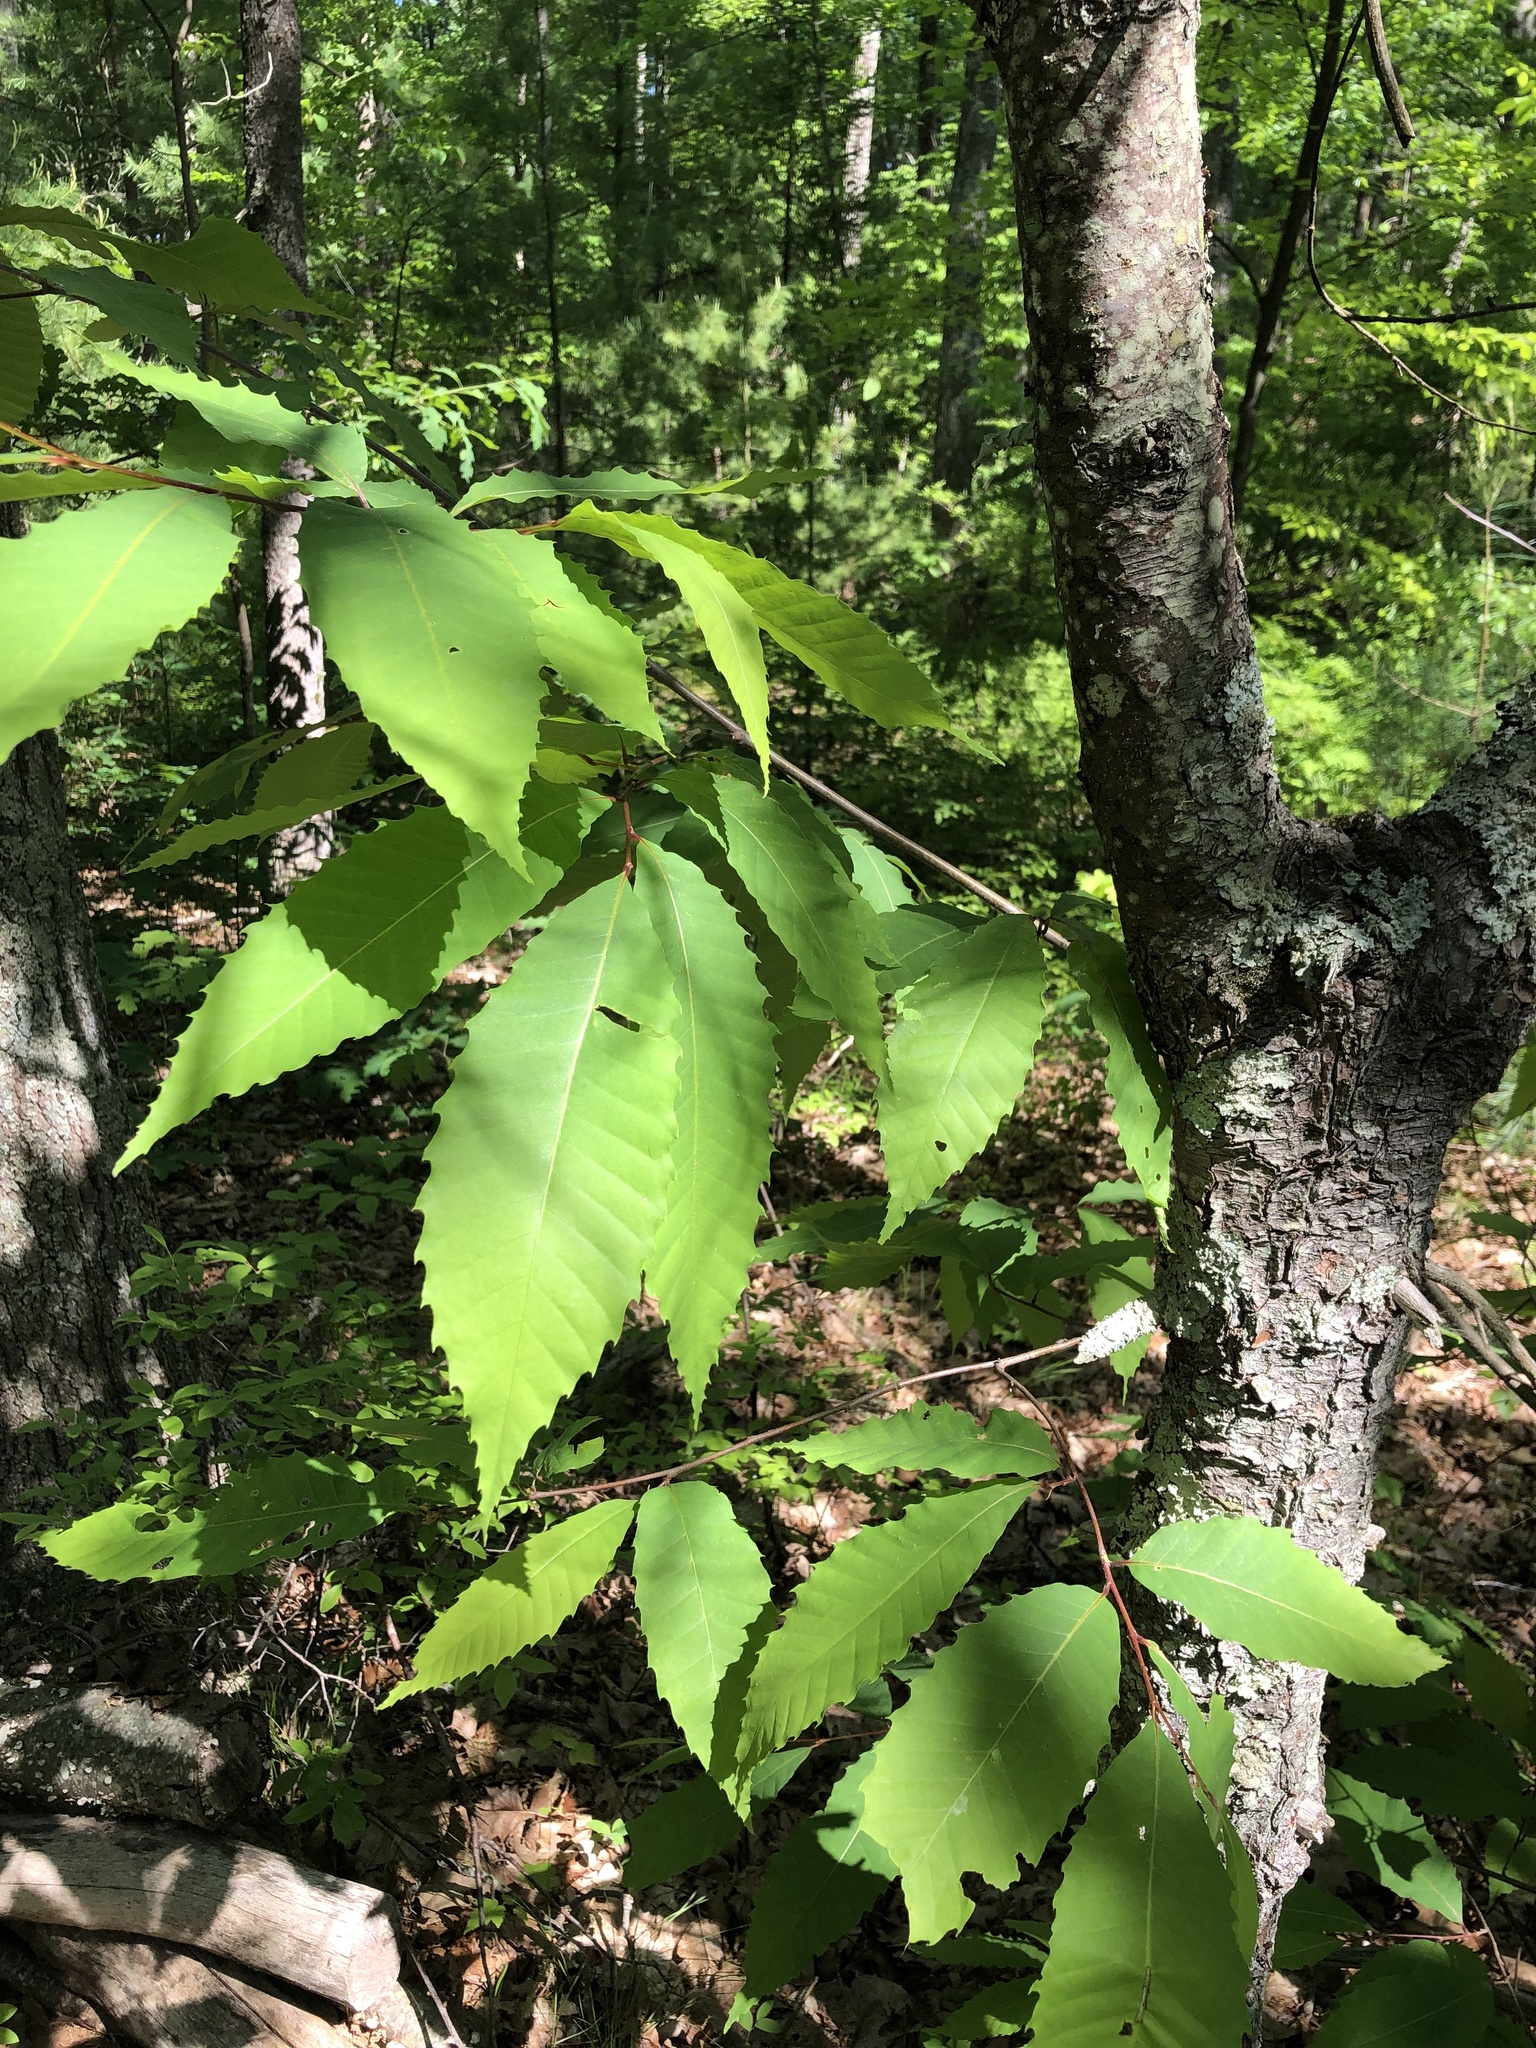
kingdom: Plantae
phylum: Tracheophyta
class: Magnoliopsida
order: Fagales
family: Fagaceae
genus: Castanea
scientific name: Castanea dentata
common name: American chestnut
